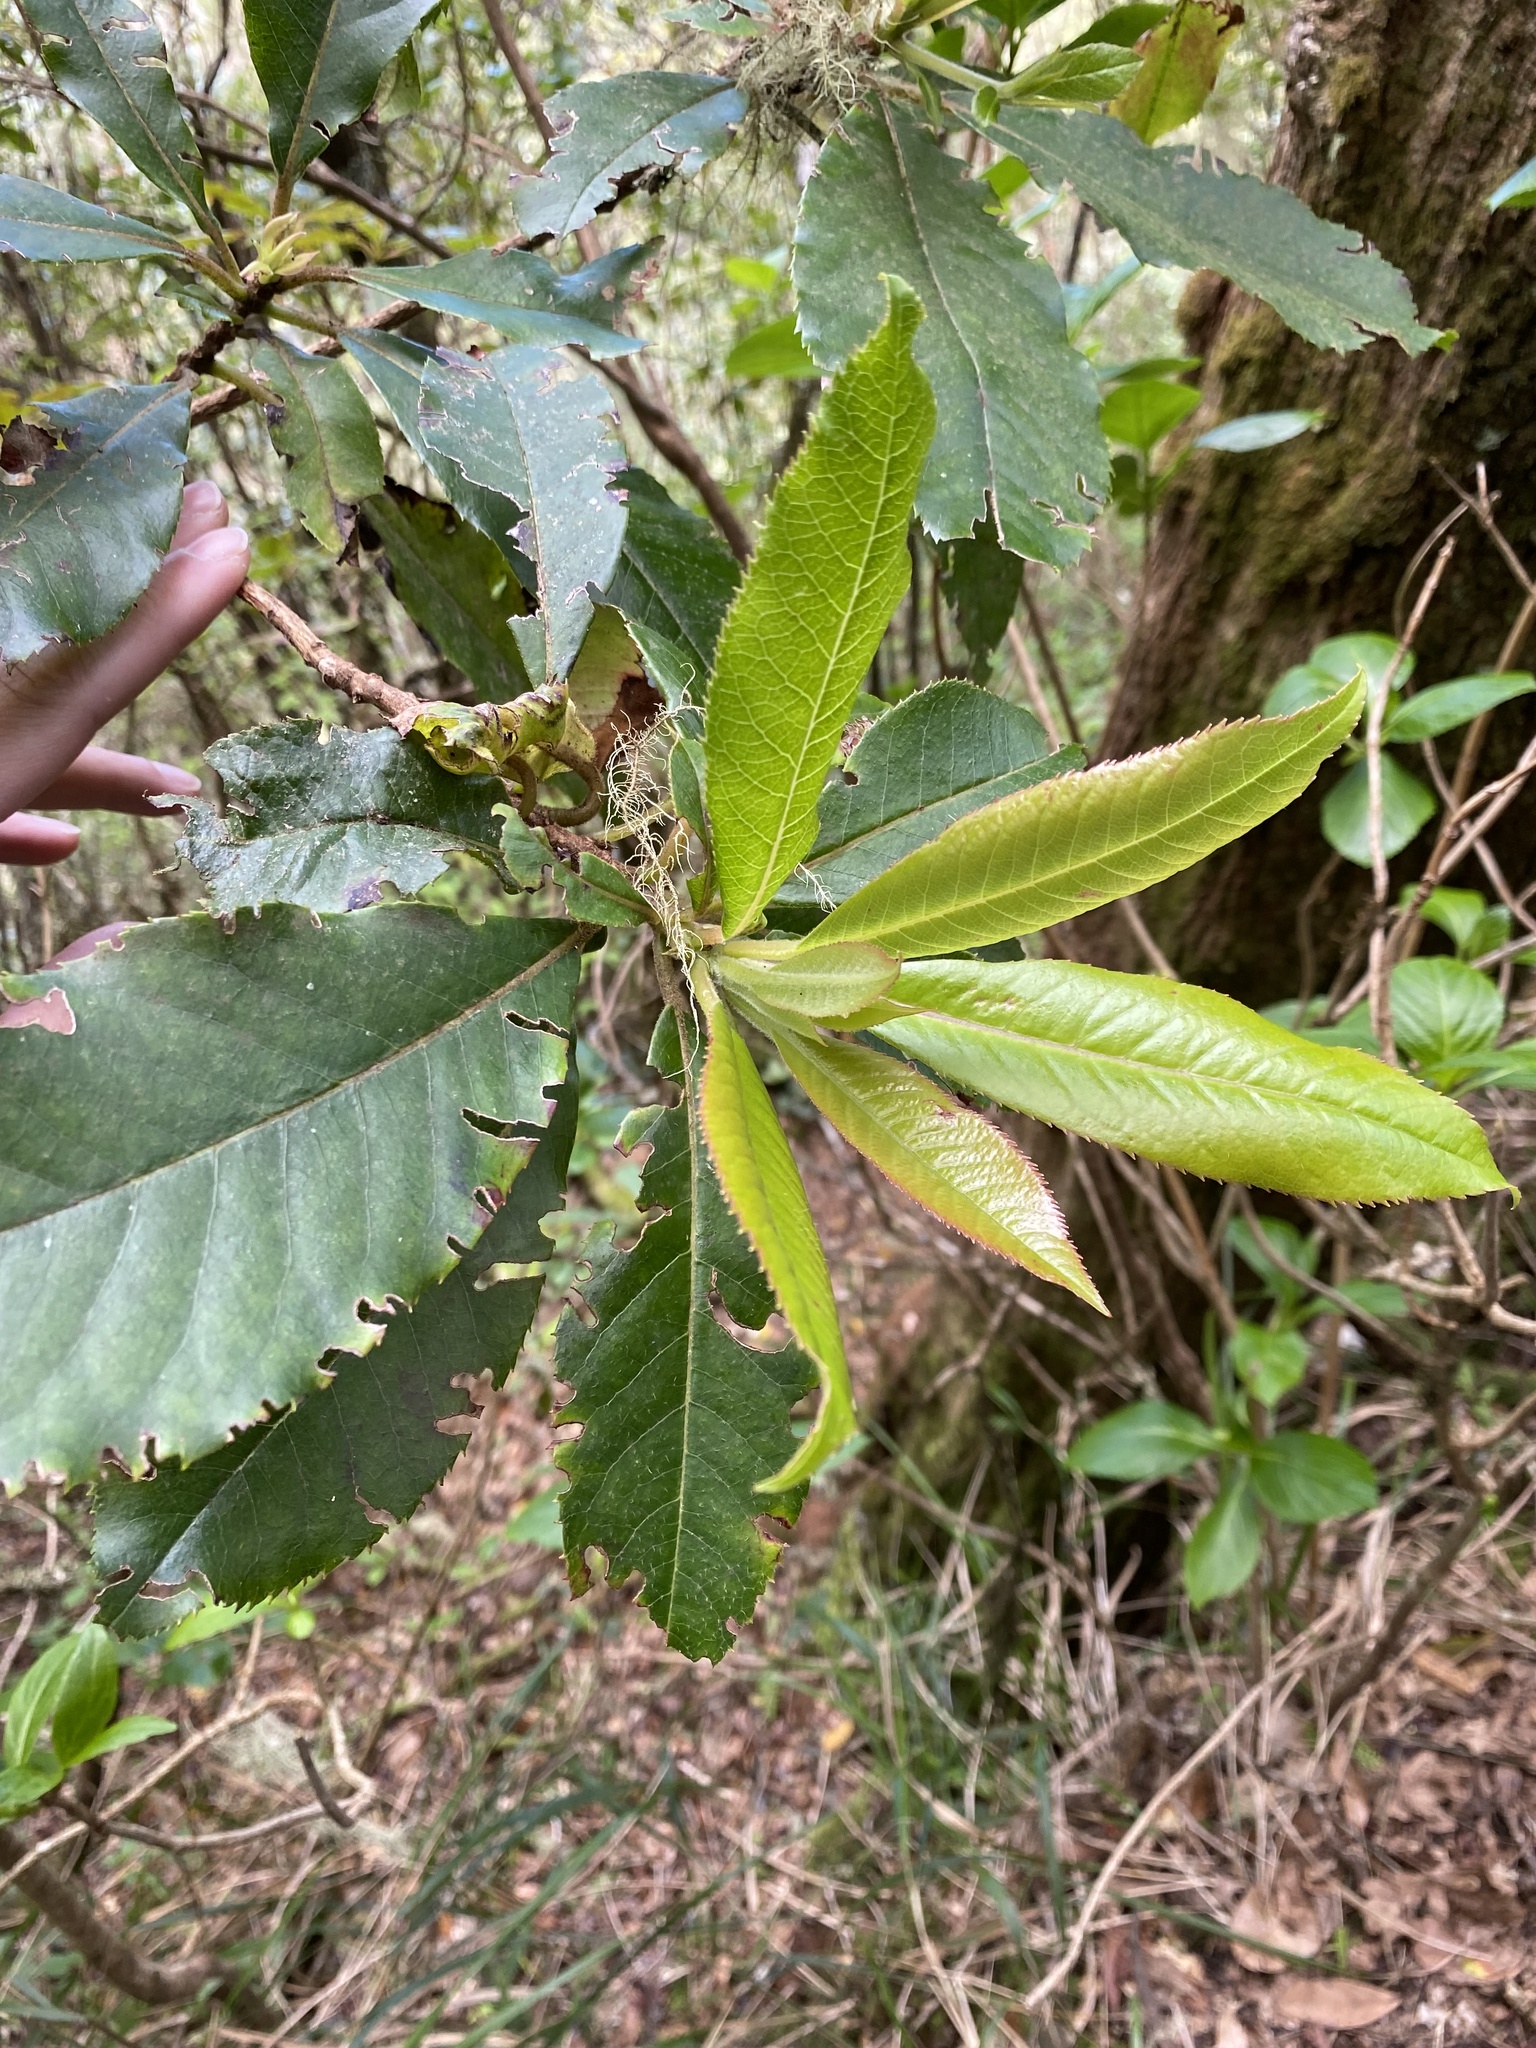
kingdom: Plantae
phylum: Tracheophyta
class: Magnoliopsida
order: Ericales
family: Clethraceae
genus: Clethra
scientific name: Clethra arborea
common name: Lily-of-the-valley-tree
